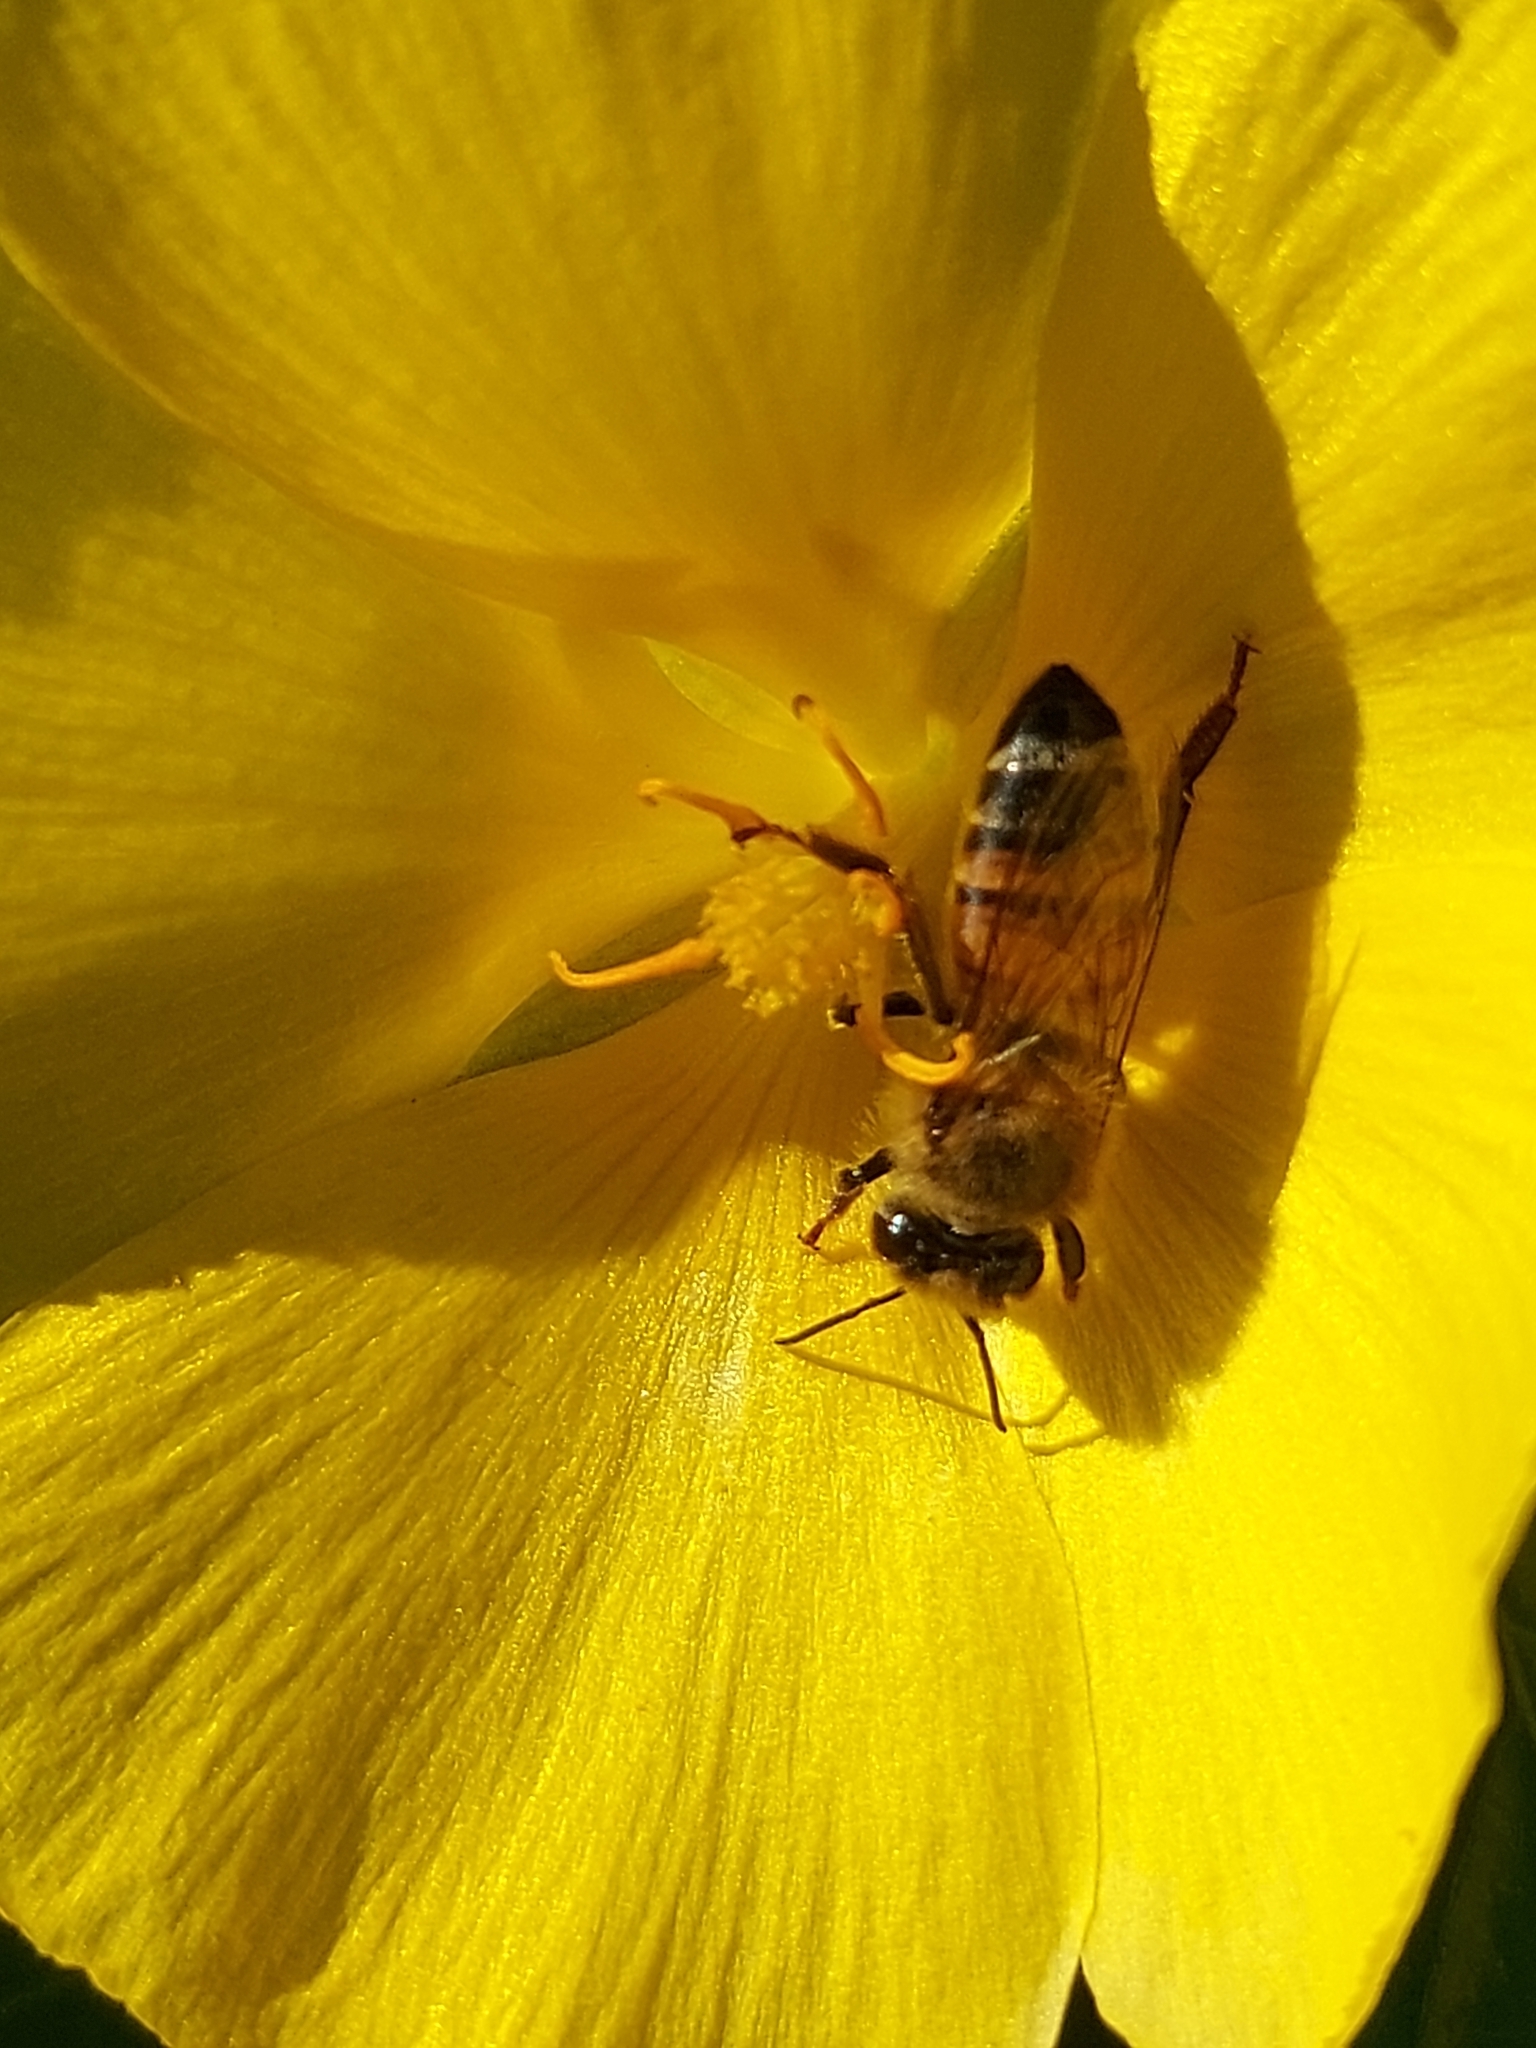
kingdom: Animalia
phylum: Arthropoda
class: Insecta
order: Hymenoptera
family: Apidae
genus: Apis
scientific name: Apis mellifera
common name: Honey bee
